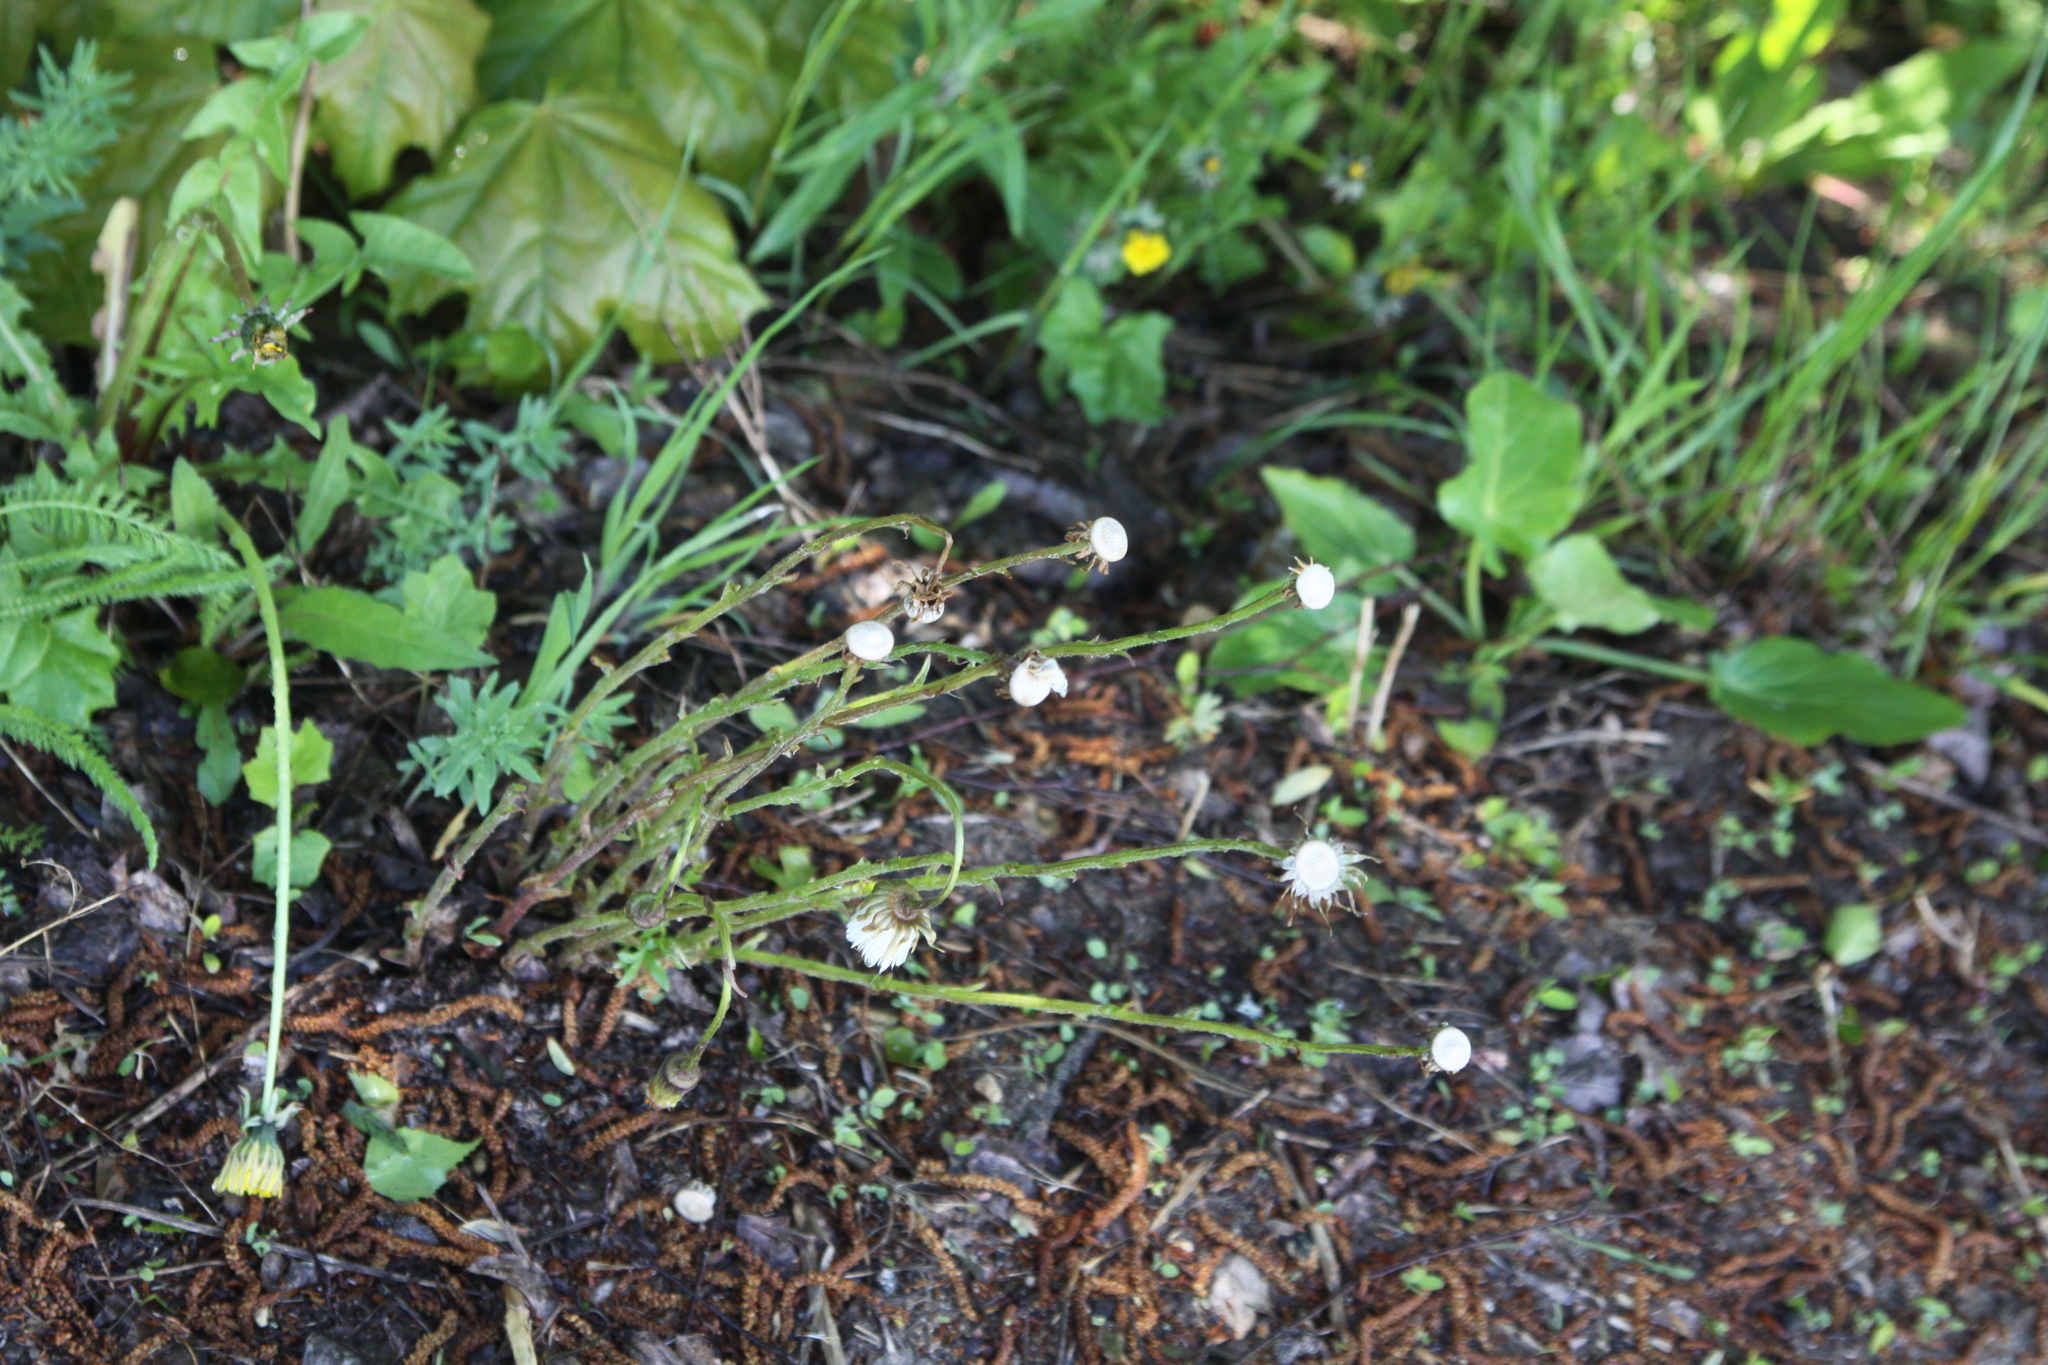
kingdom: Plantae
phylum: Tracheophyta
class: Magnoliopsida
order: Asterales
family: Asteraceae
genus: Tussilago
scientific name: Tussilago farfara
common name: Coltsfoot
